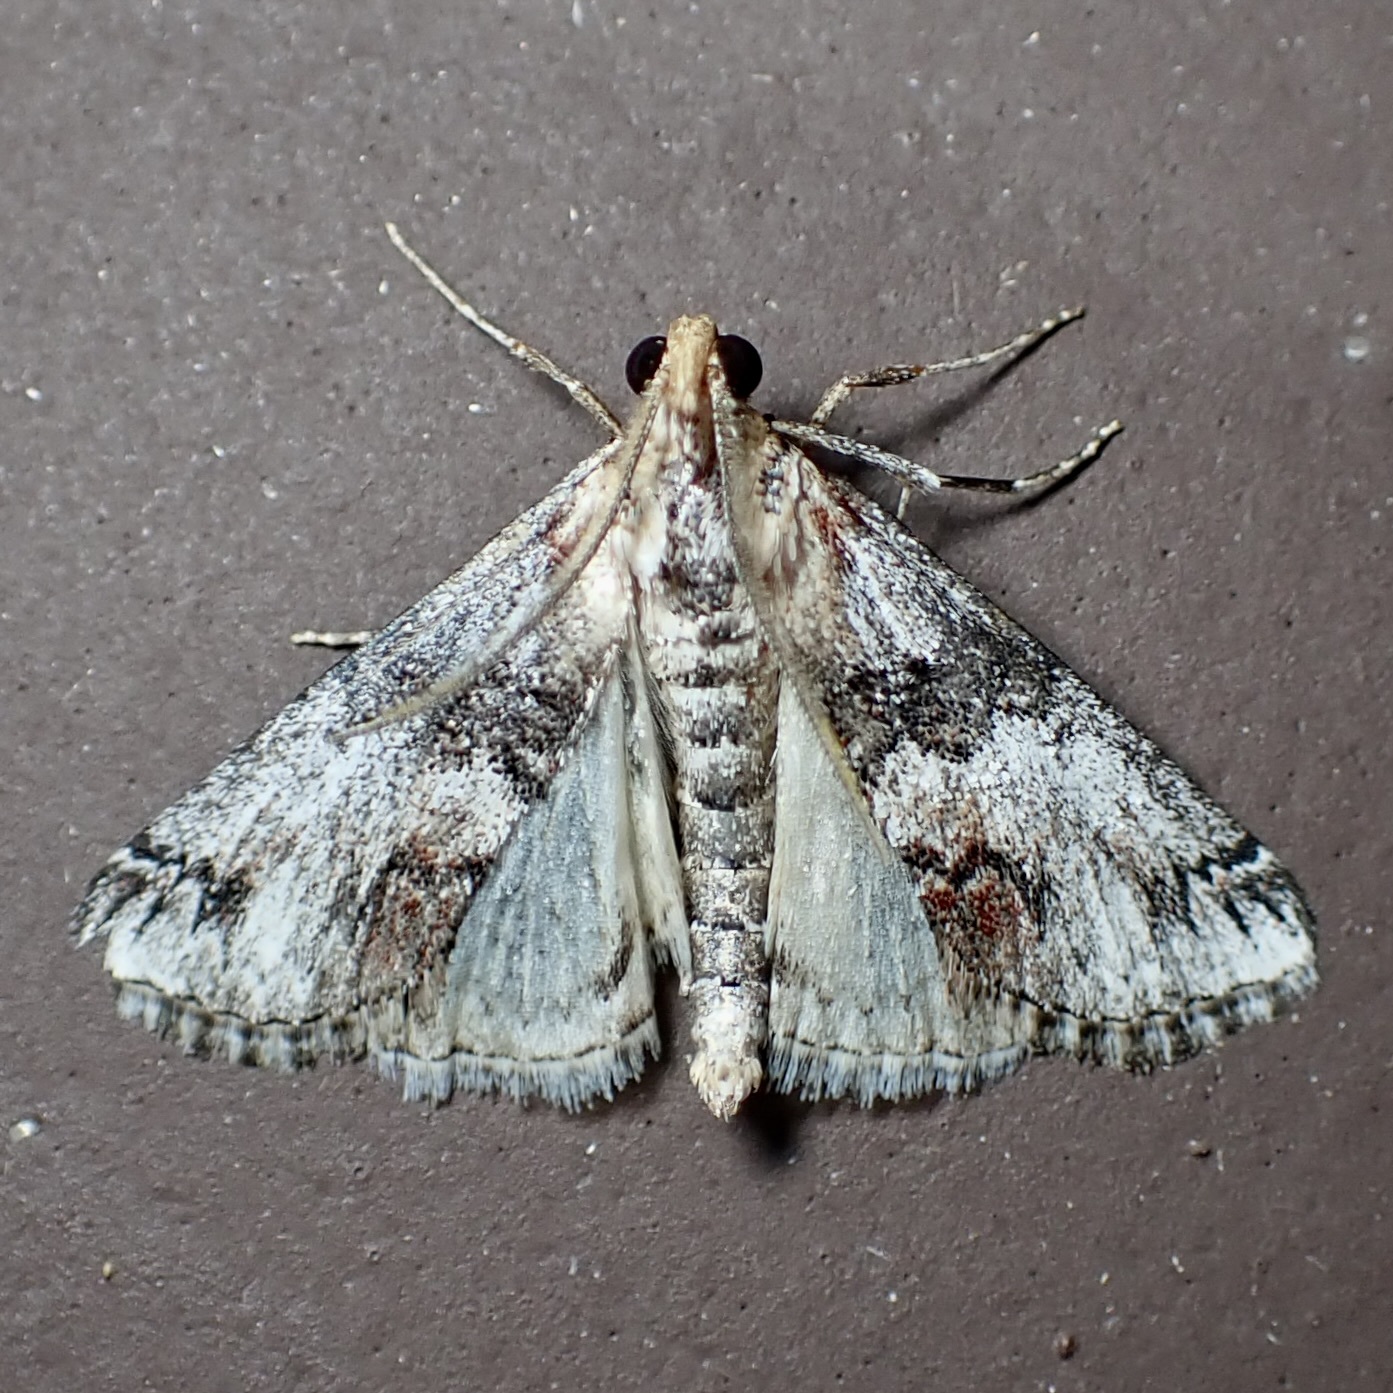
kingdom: Animalia
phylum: Arthropoda
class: Insecta
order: Lepidoptera
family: Pyralidae
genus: Toripalpus
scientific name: Toripalpus trabalis
